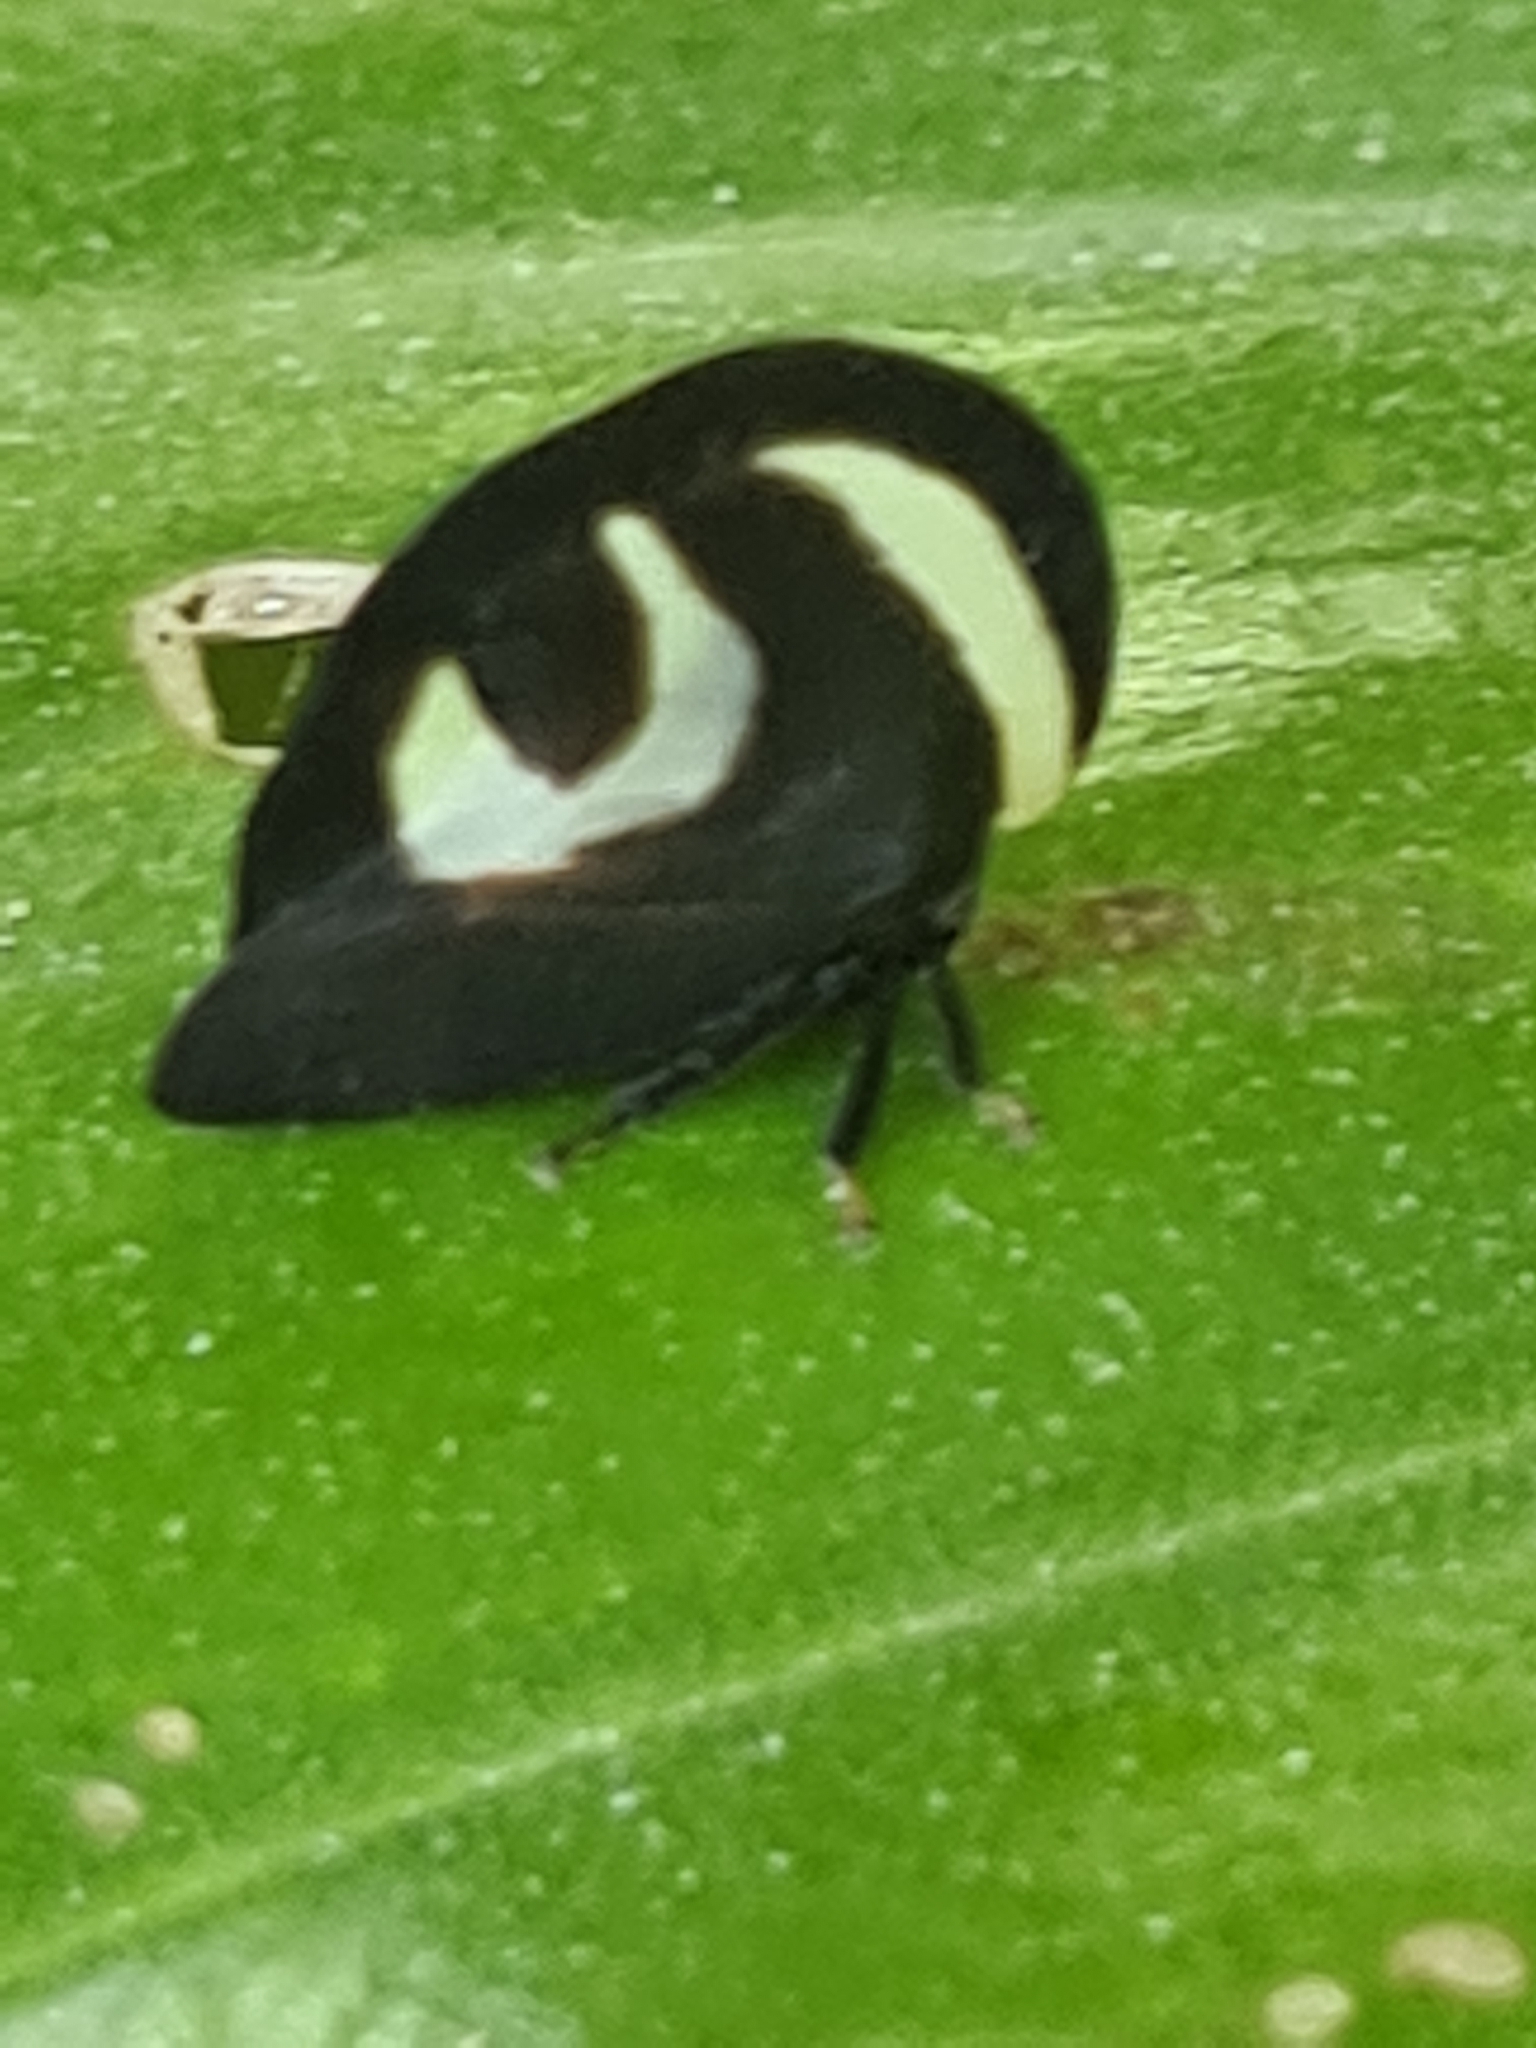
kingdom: Animalia
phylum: Arthropoda
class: Insecta
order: Hemiptera
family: Membracidae
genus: Membracis
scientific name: Membracis foliatafasciata
